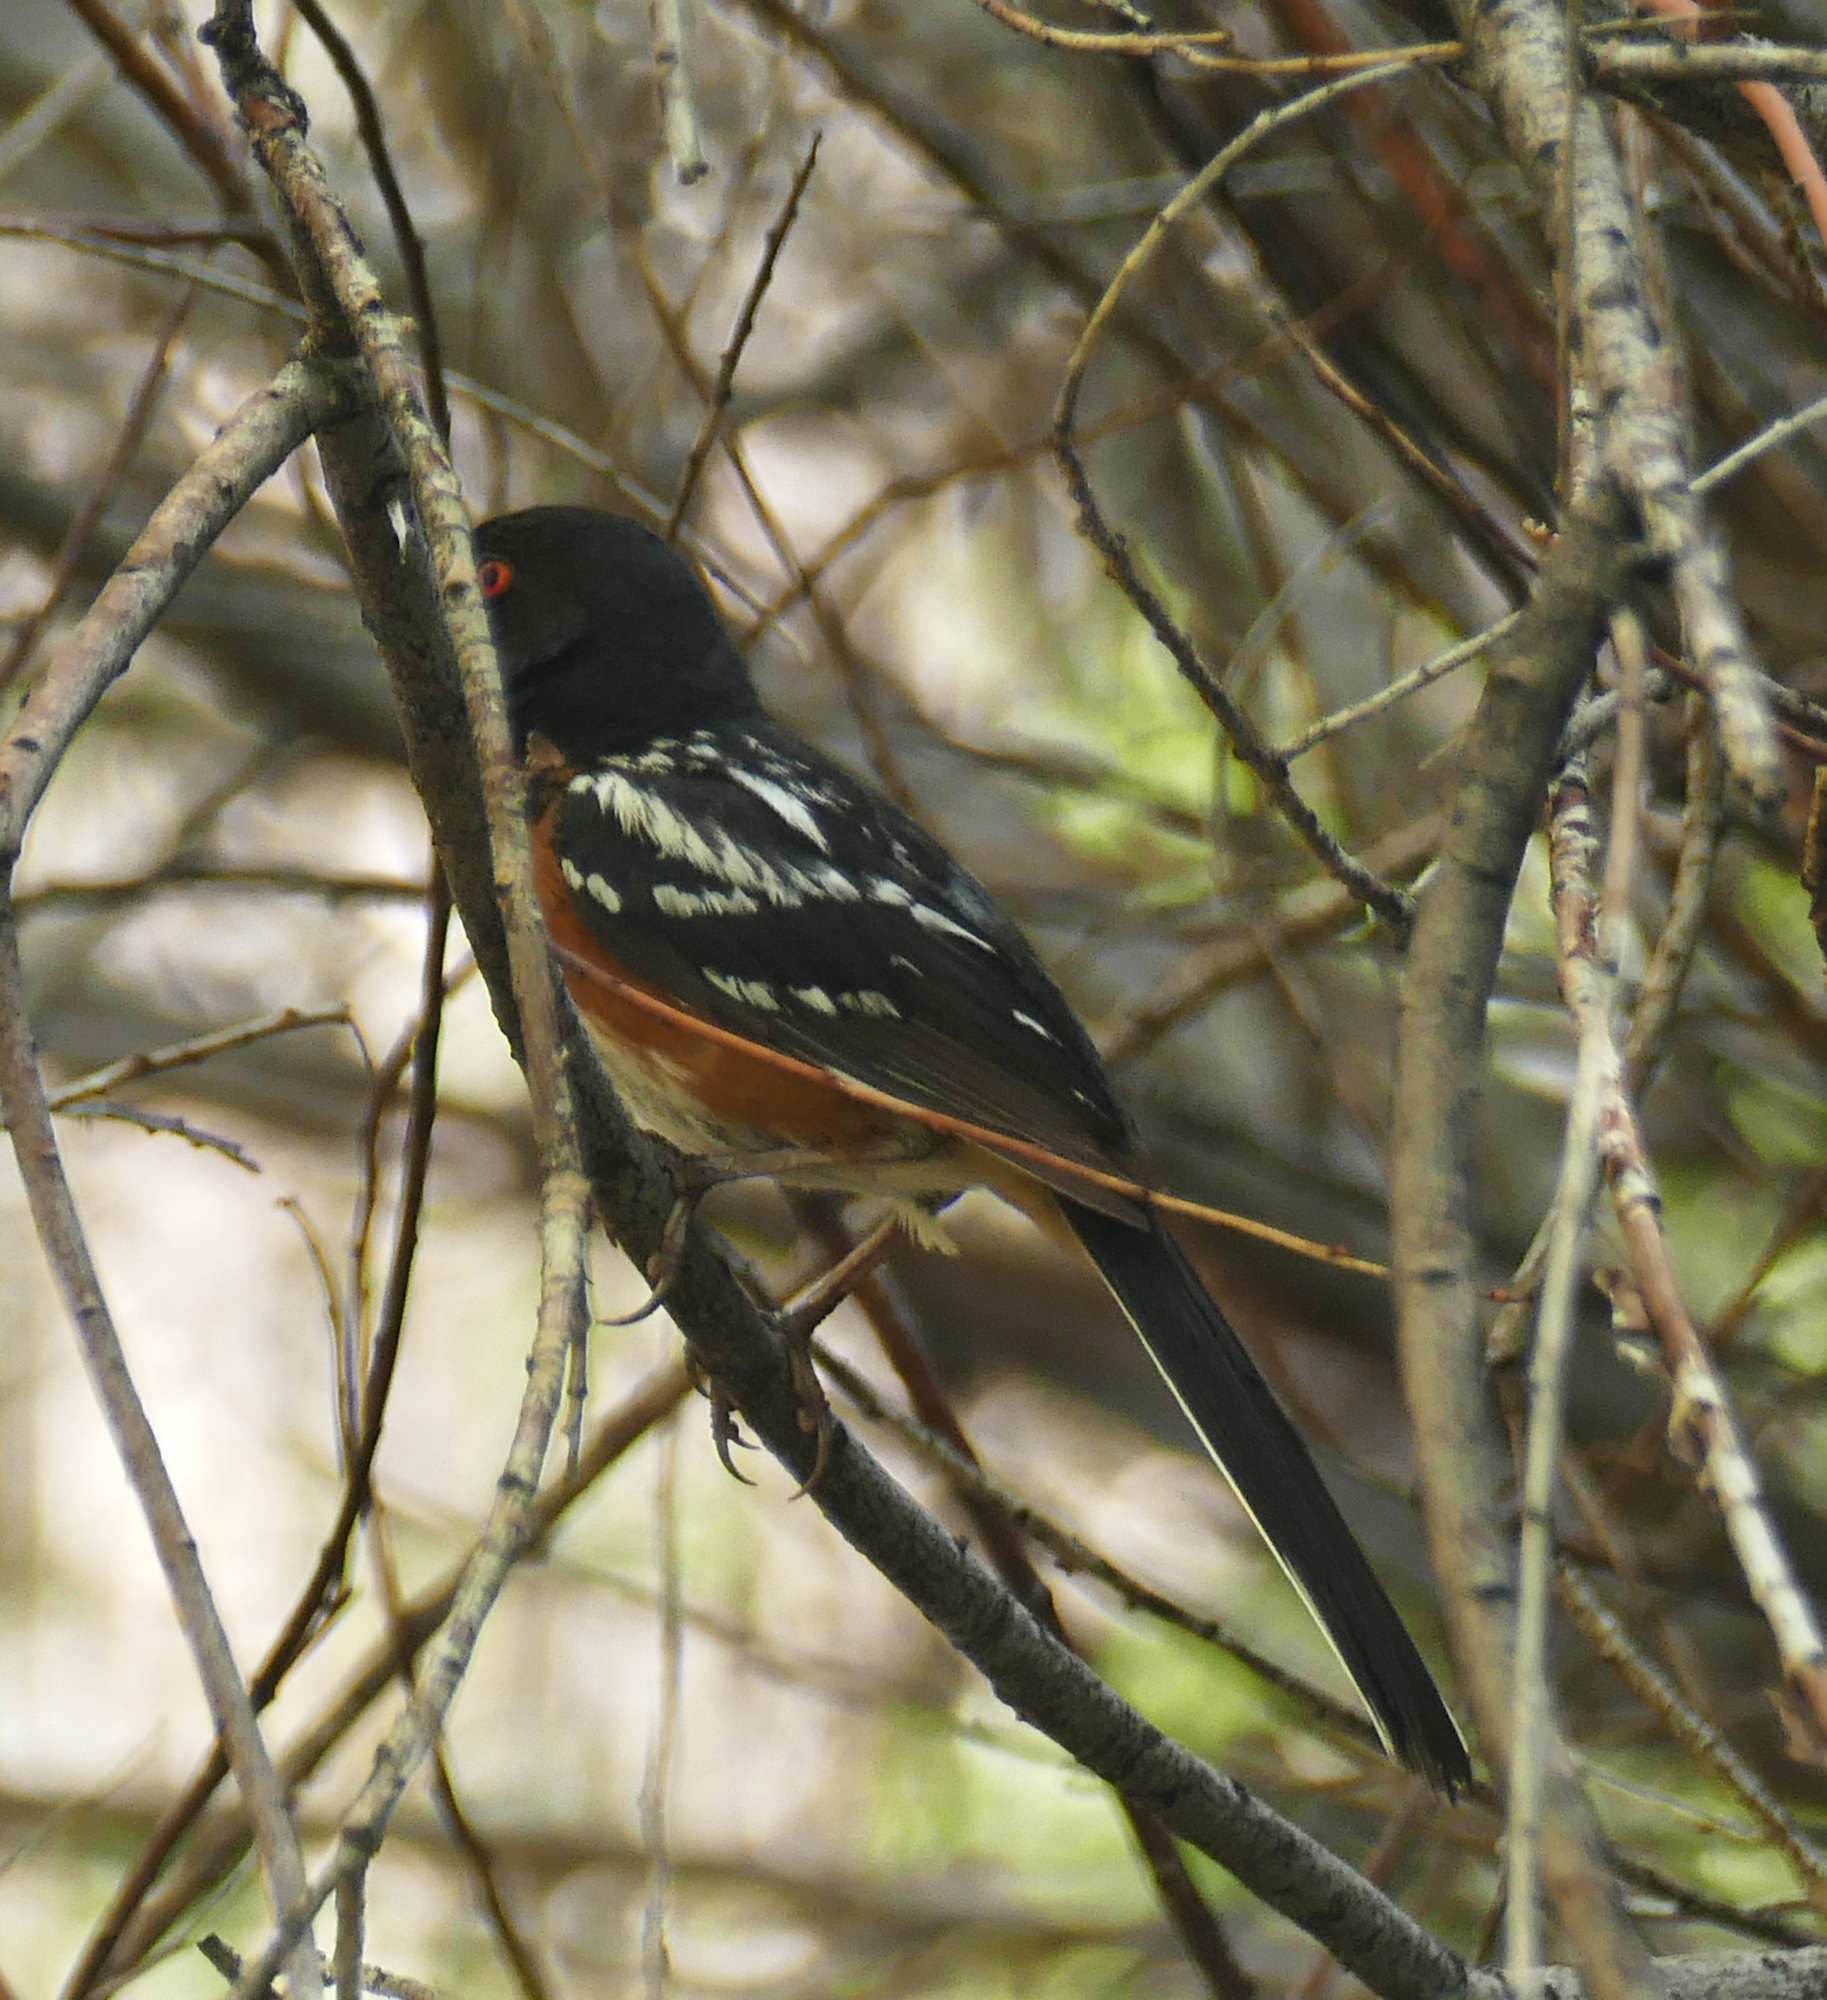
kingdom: Animalia
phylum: Chordata
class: Aves
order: Passeriformes
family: Passerellidae
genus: Pipilo
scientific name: Pipilo maculatus
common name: Spotted towhee
